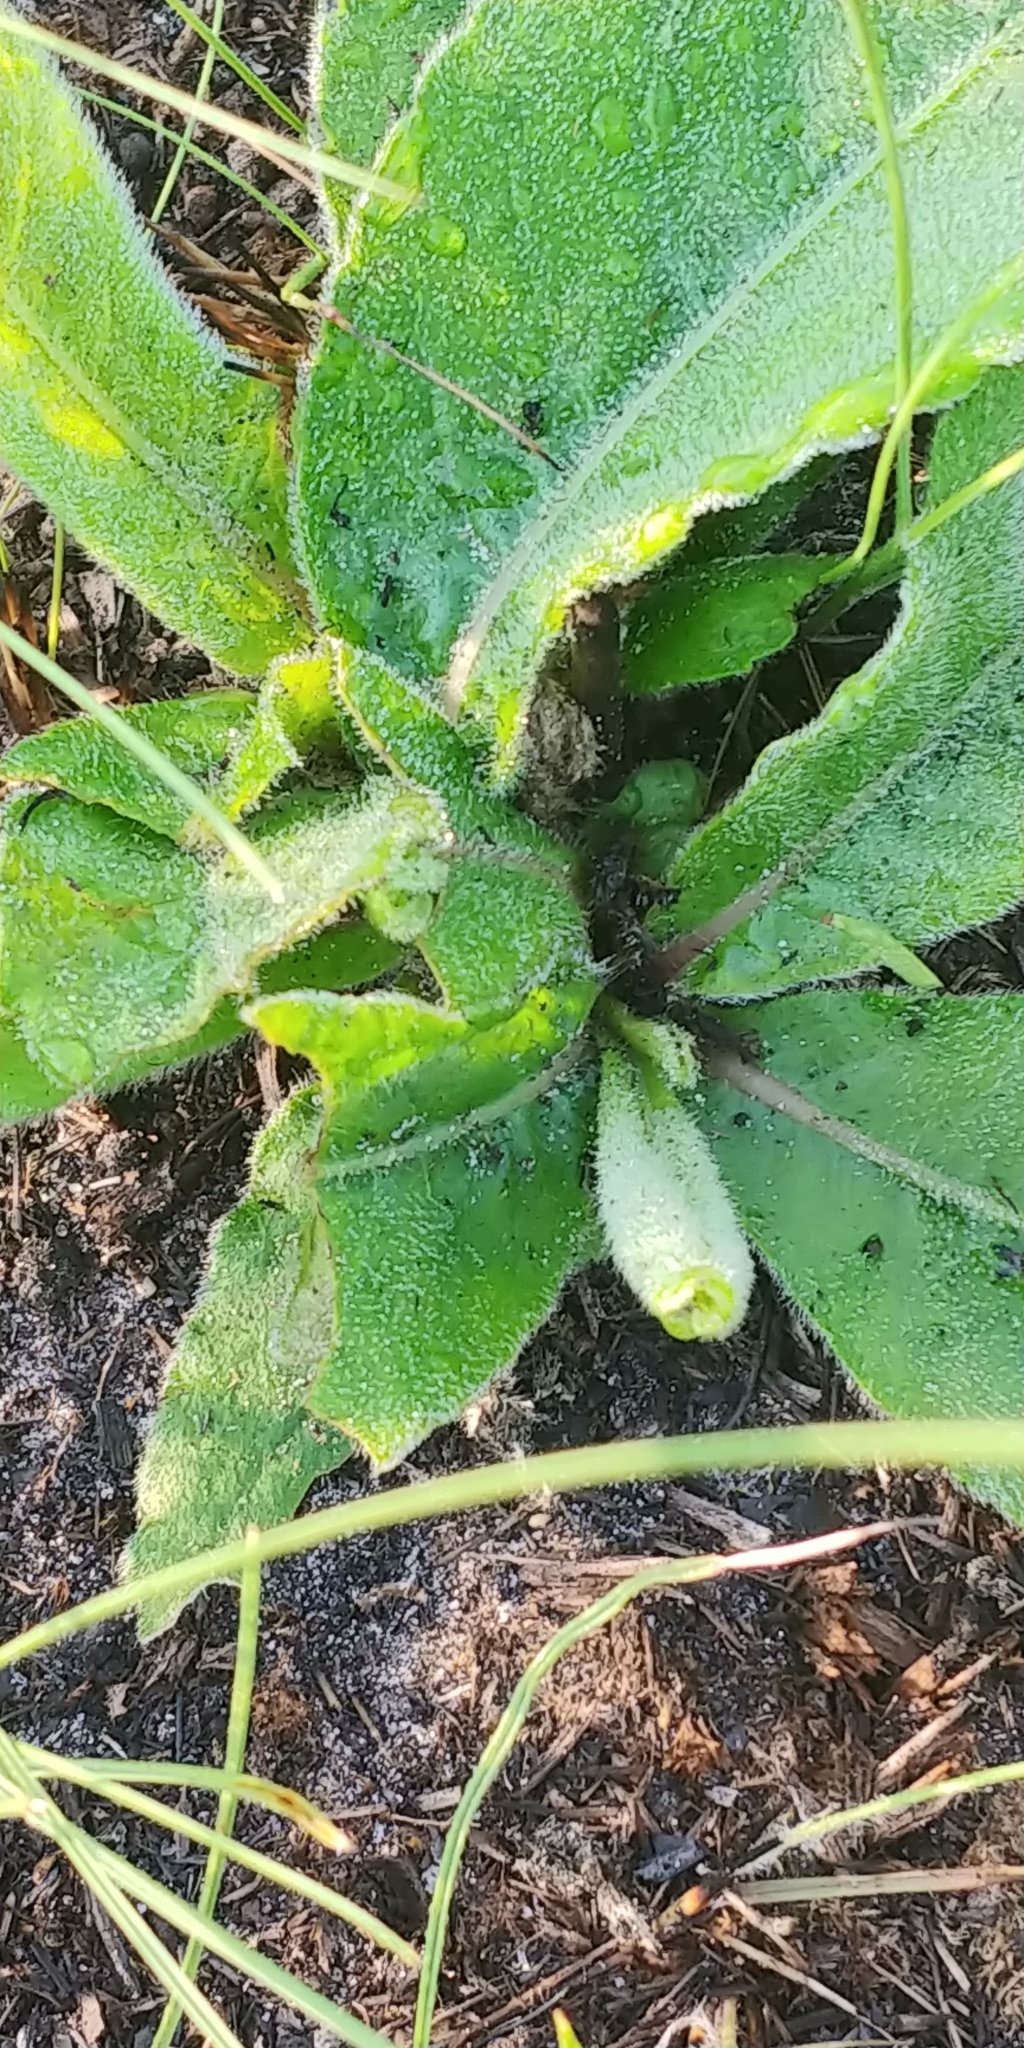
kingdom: Plantae
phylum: Tracheophyta
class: Magnoliopsida
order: Asterales
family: Asteraceae
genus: Elephantopus
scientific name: Elephantopus elatus
